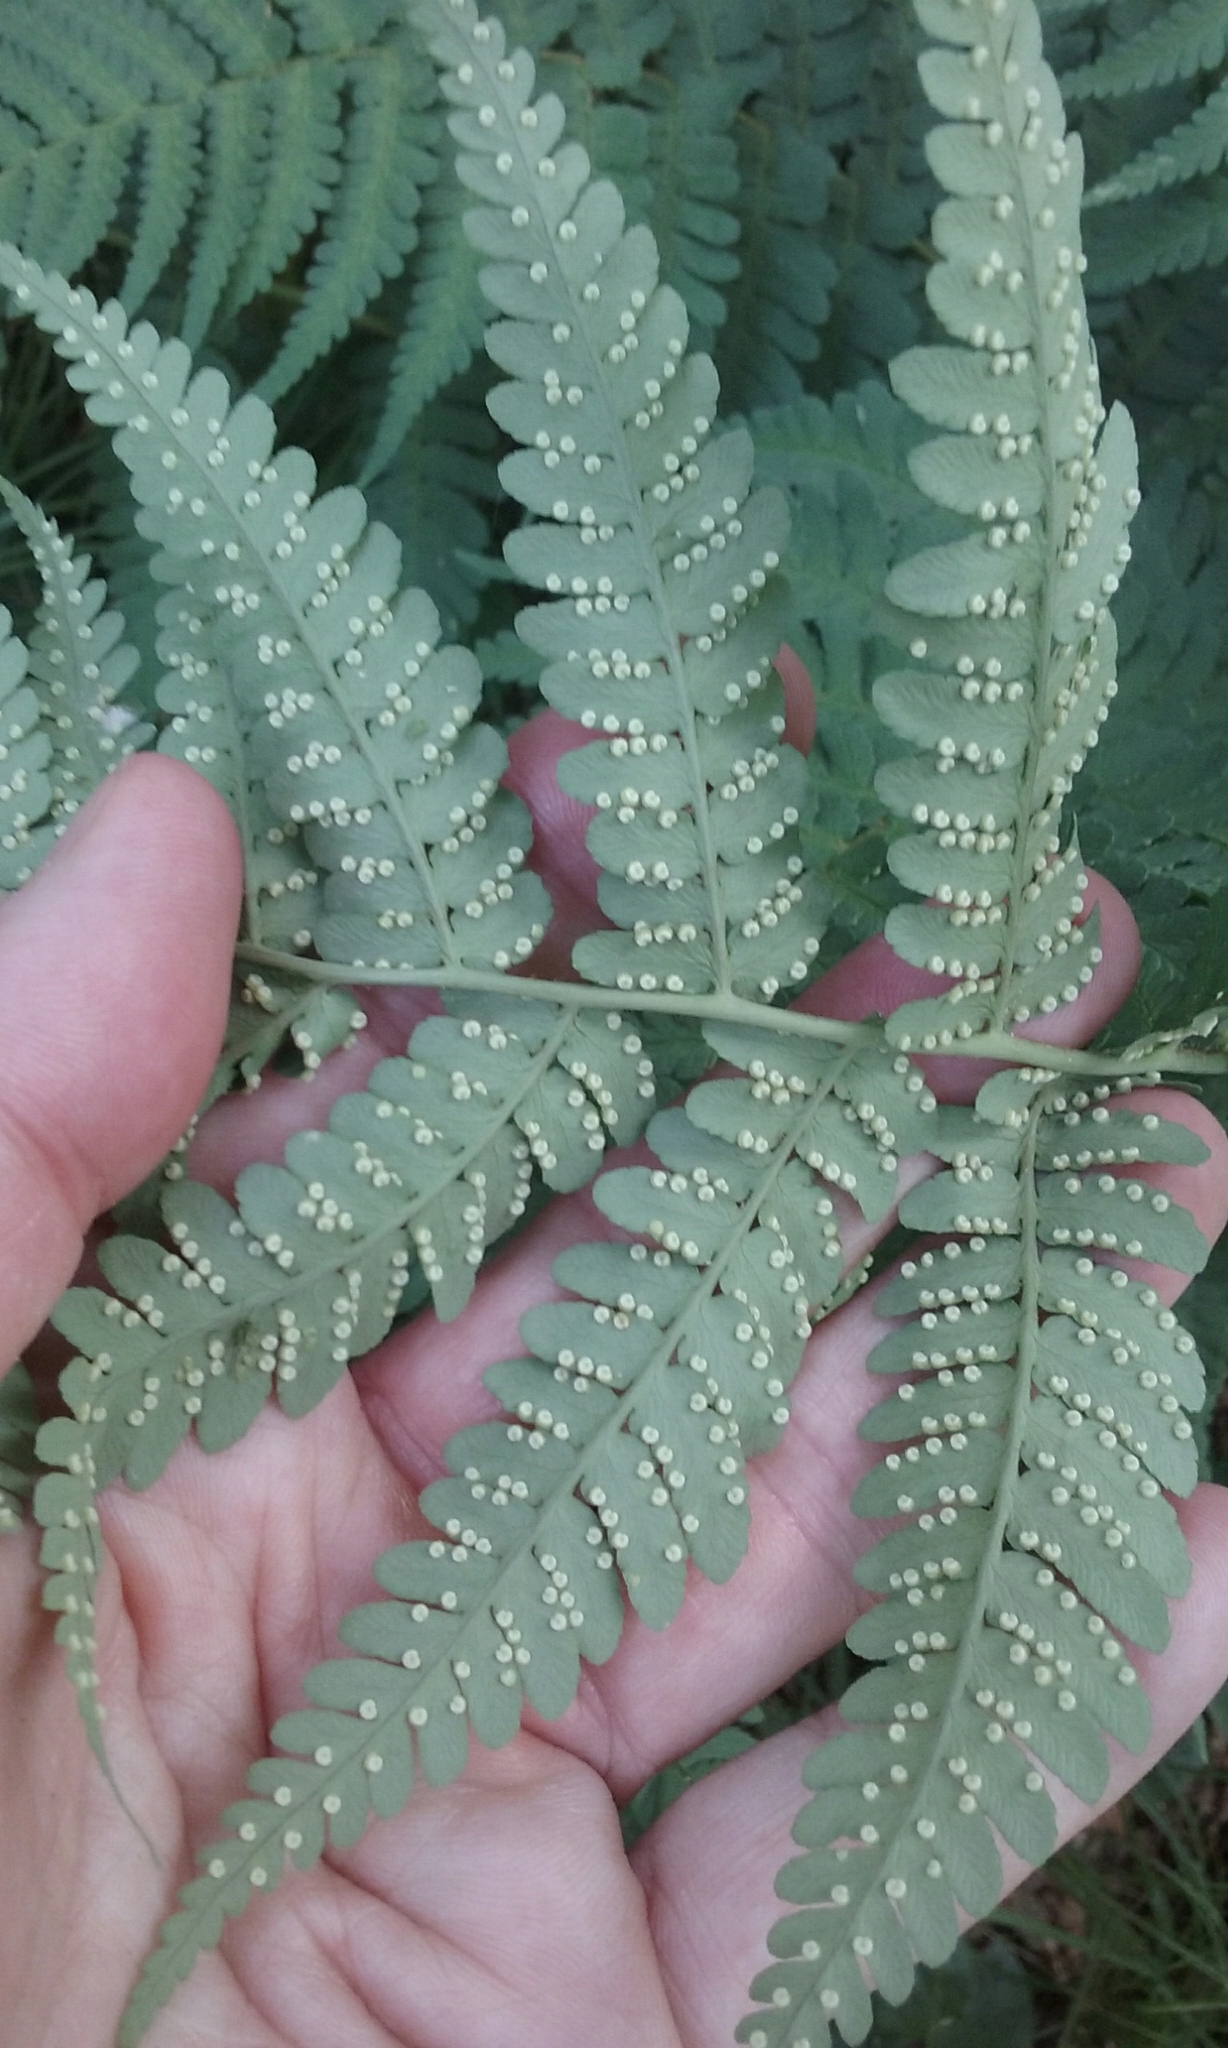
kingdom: Plantae
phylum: Tracheophyta
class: Polypodiopsida
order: Polypodiales
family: Dryopteridaceae
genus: Dryopteris
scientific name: Dryopteris marginalis
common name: Marginal wood fern
